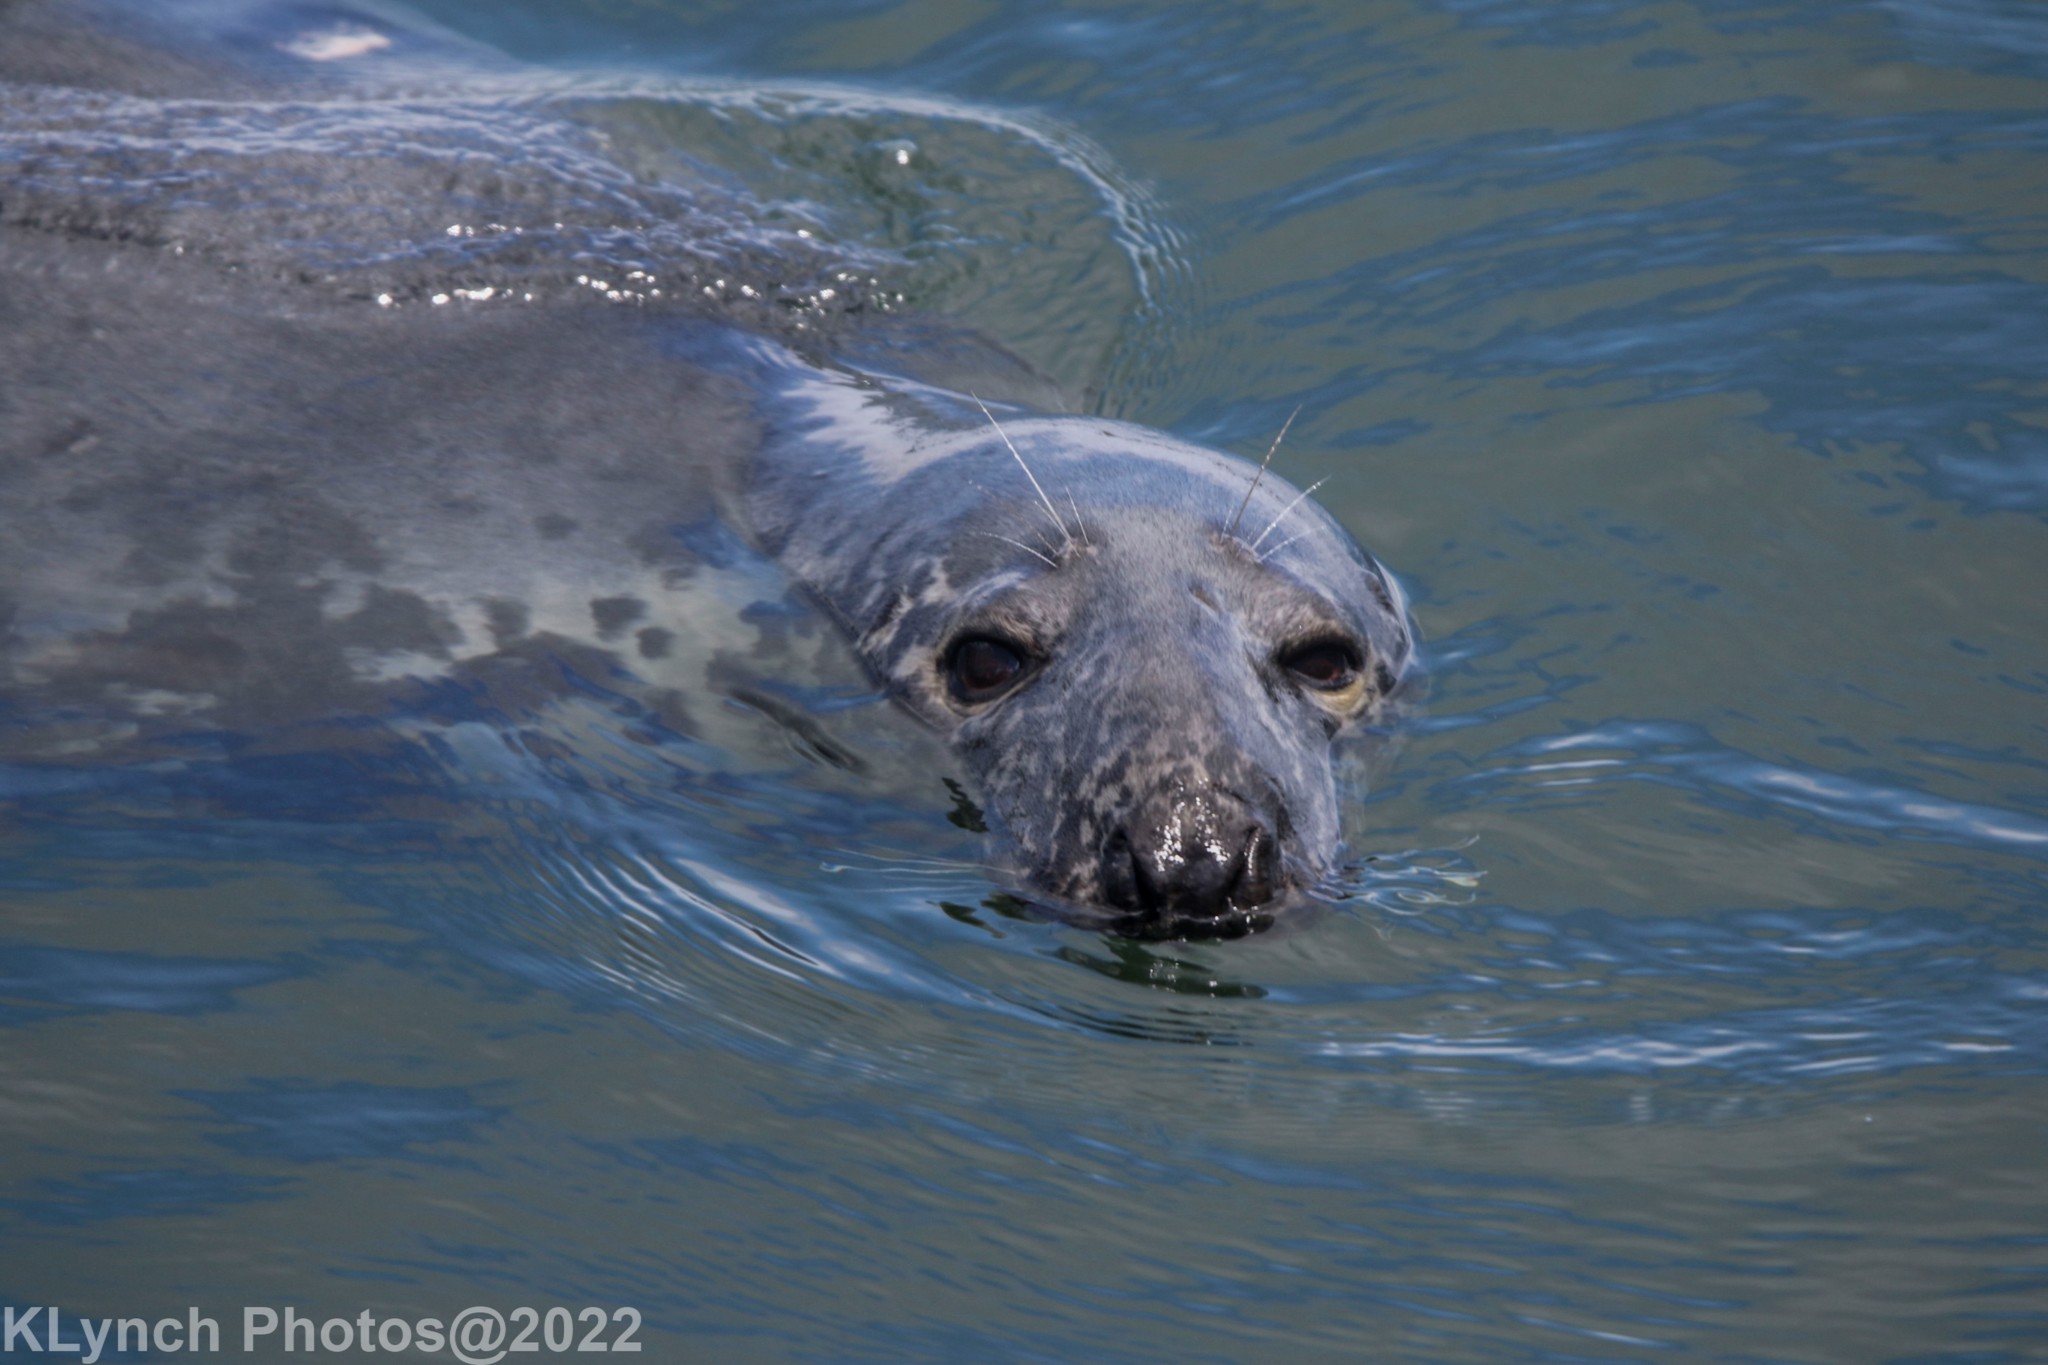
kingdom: Animalia
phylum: Chordata
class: Mammalia
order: Carnivora
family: Phocidae
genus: Halichoerus
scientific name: Halichoerus grypus
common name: Grey seal
